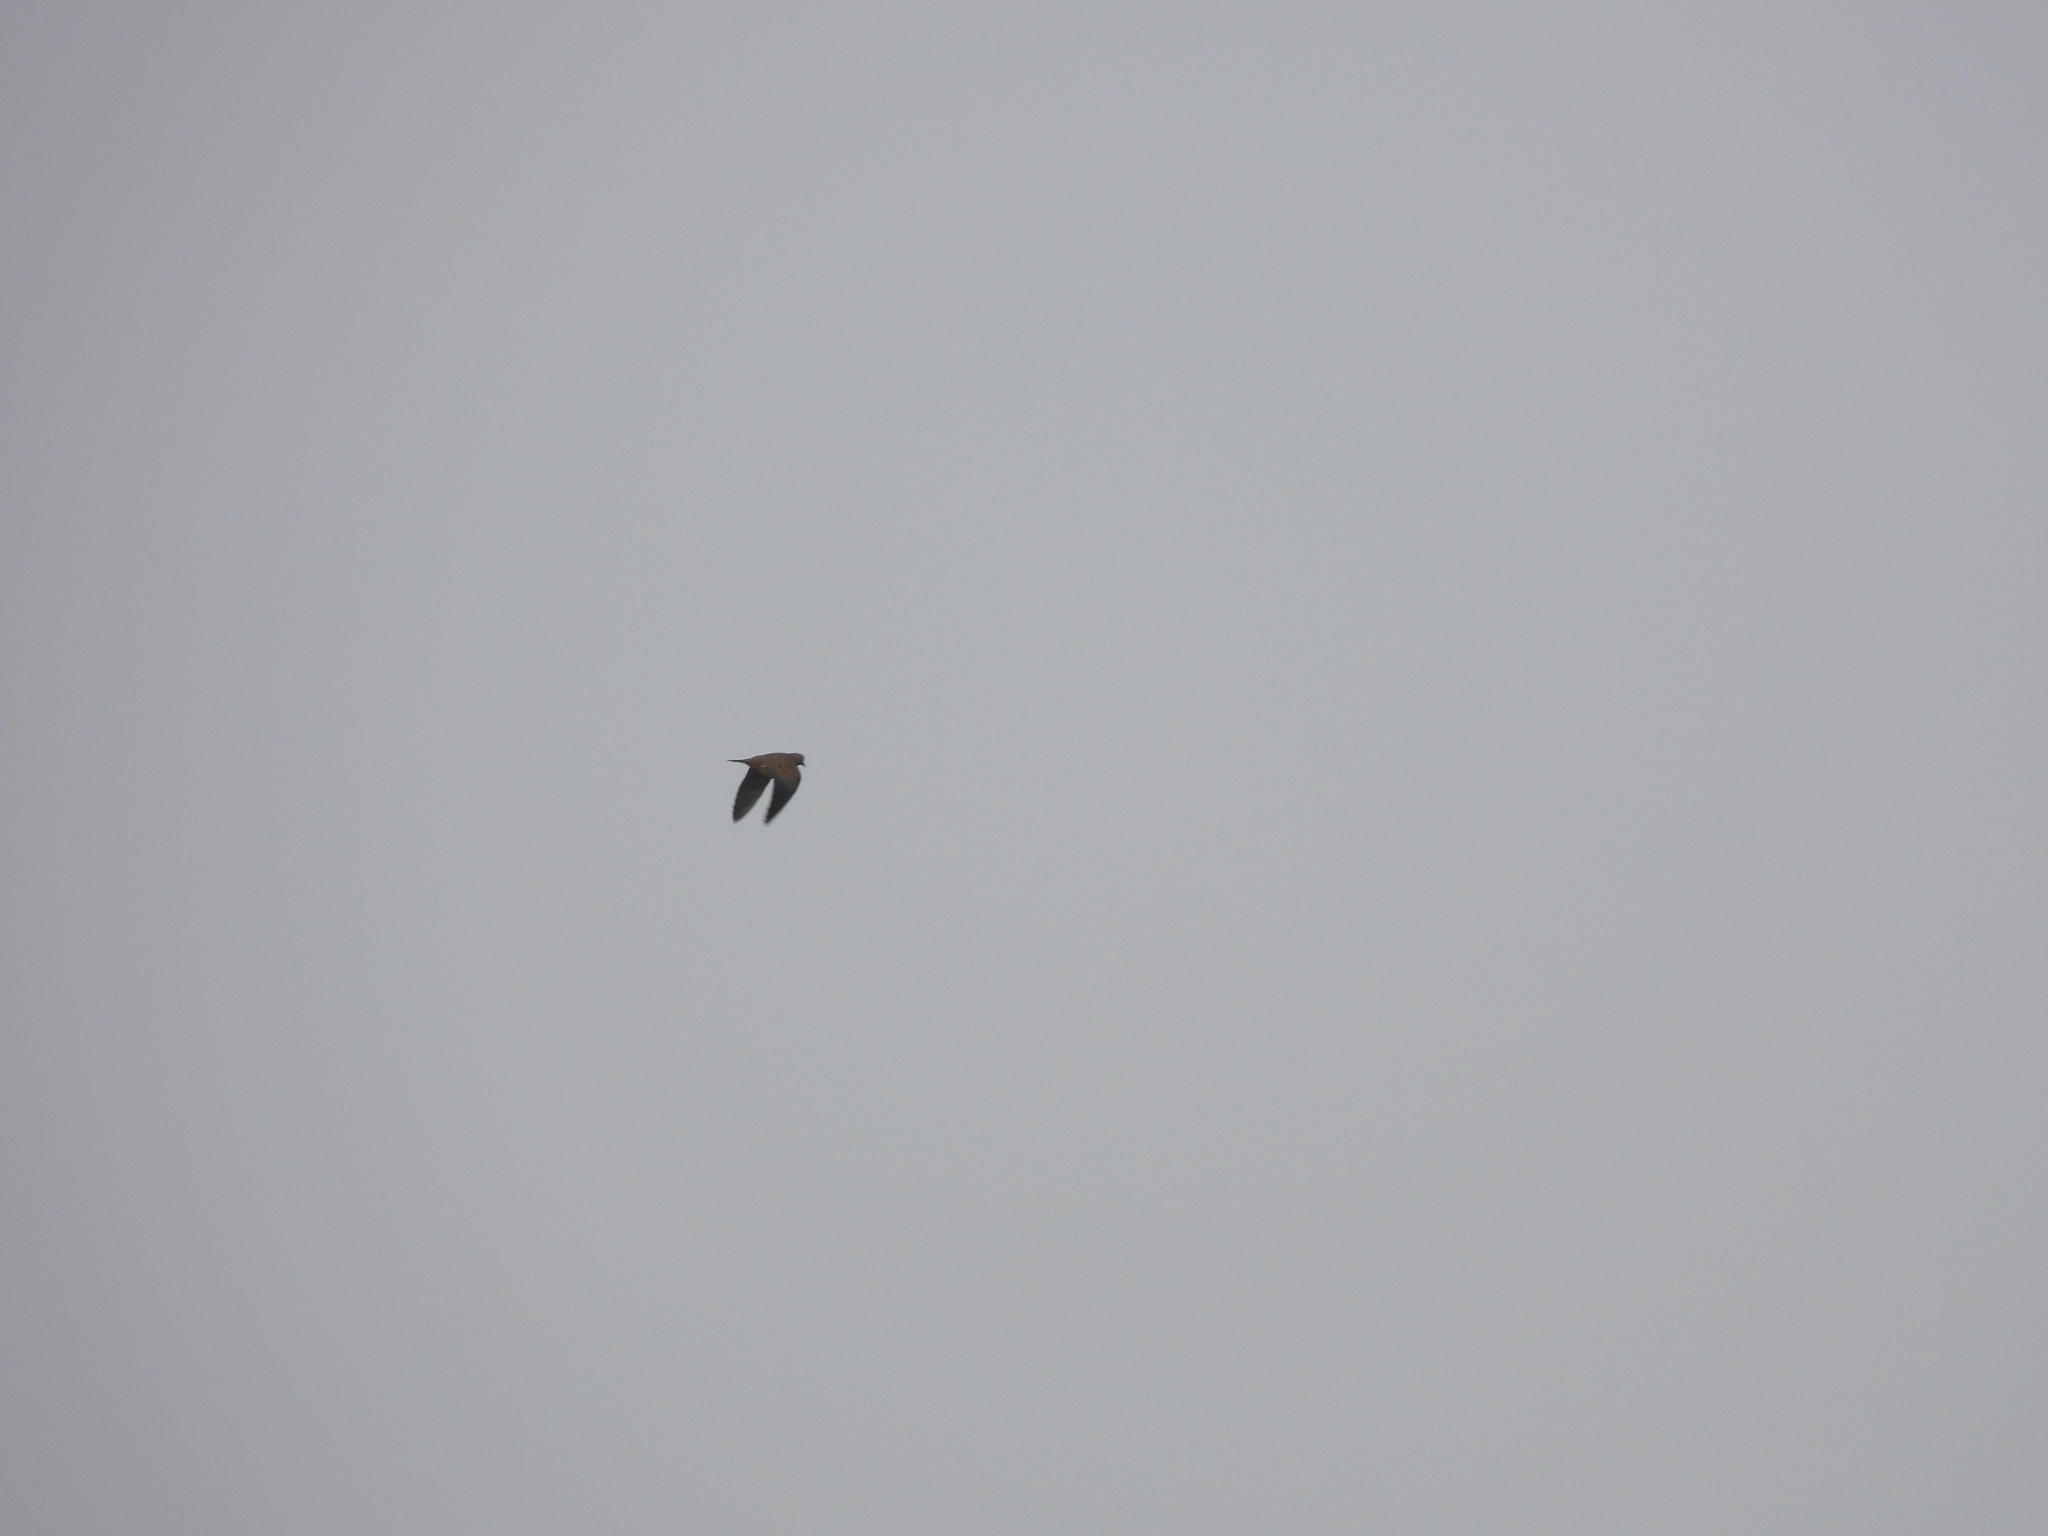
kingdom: Animalia
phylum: Chordata
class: Aves
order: Columbiformes
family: Columbidae
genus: Zenaida
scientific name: Zenaida macroura
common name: Mourning dove
